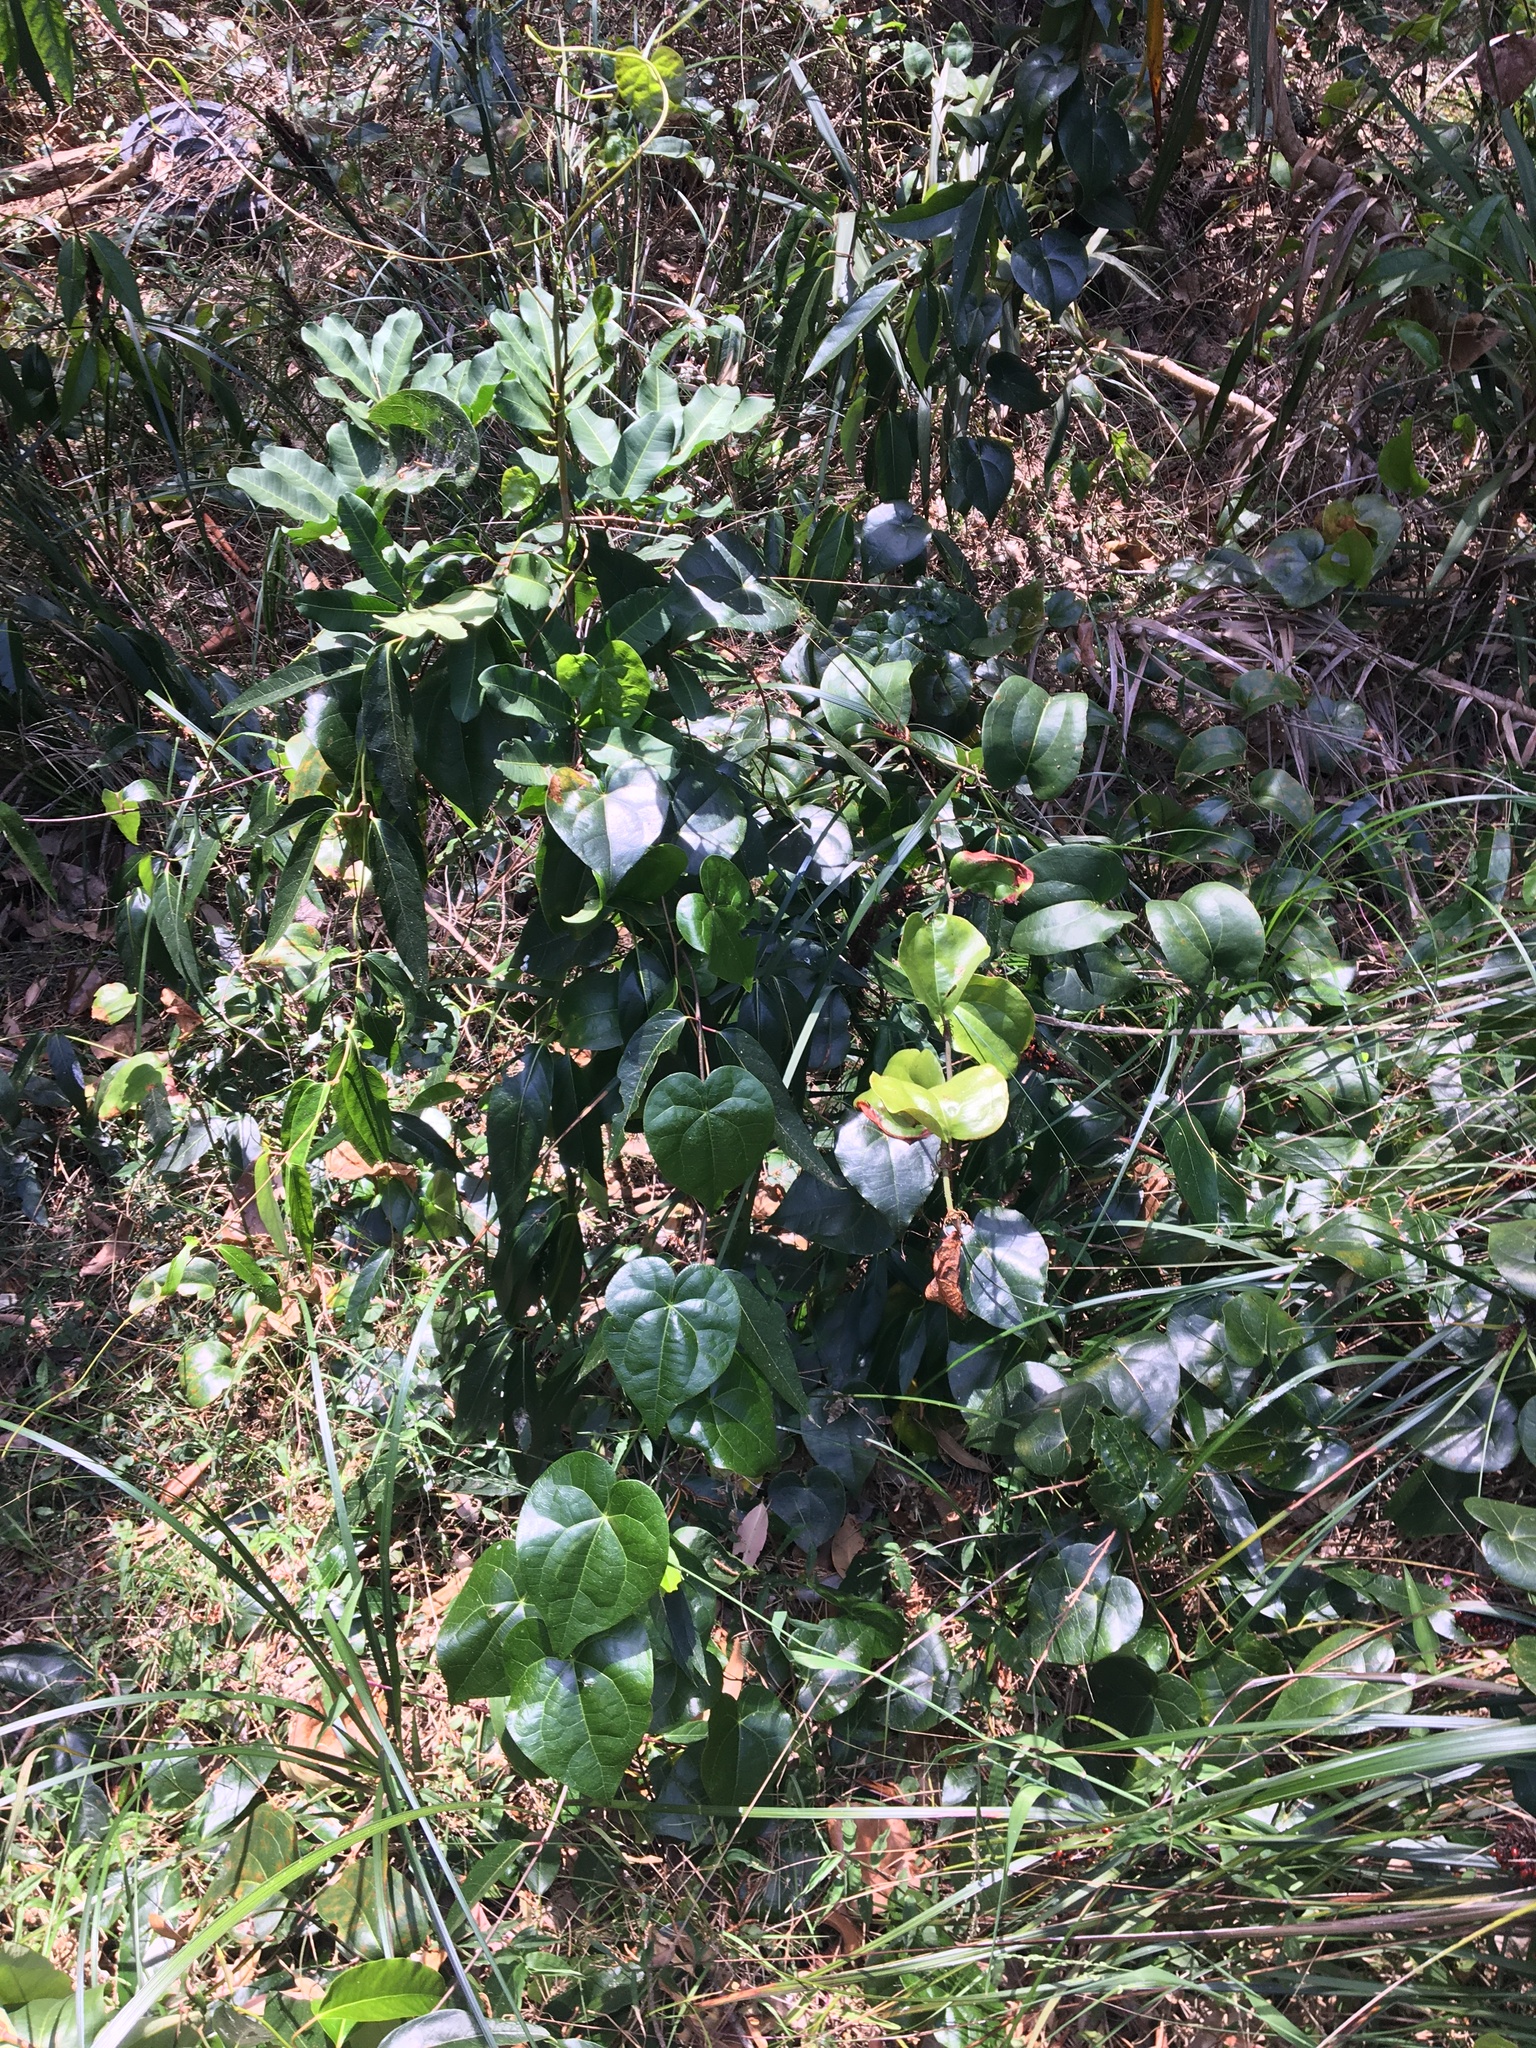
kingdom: Plantae
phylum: Tracheophyta
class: Magnoliopsida
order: Ranunculales
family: Menispermaceae
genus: Sarcopetalum
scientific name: Sarcopetalum harveyanum
